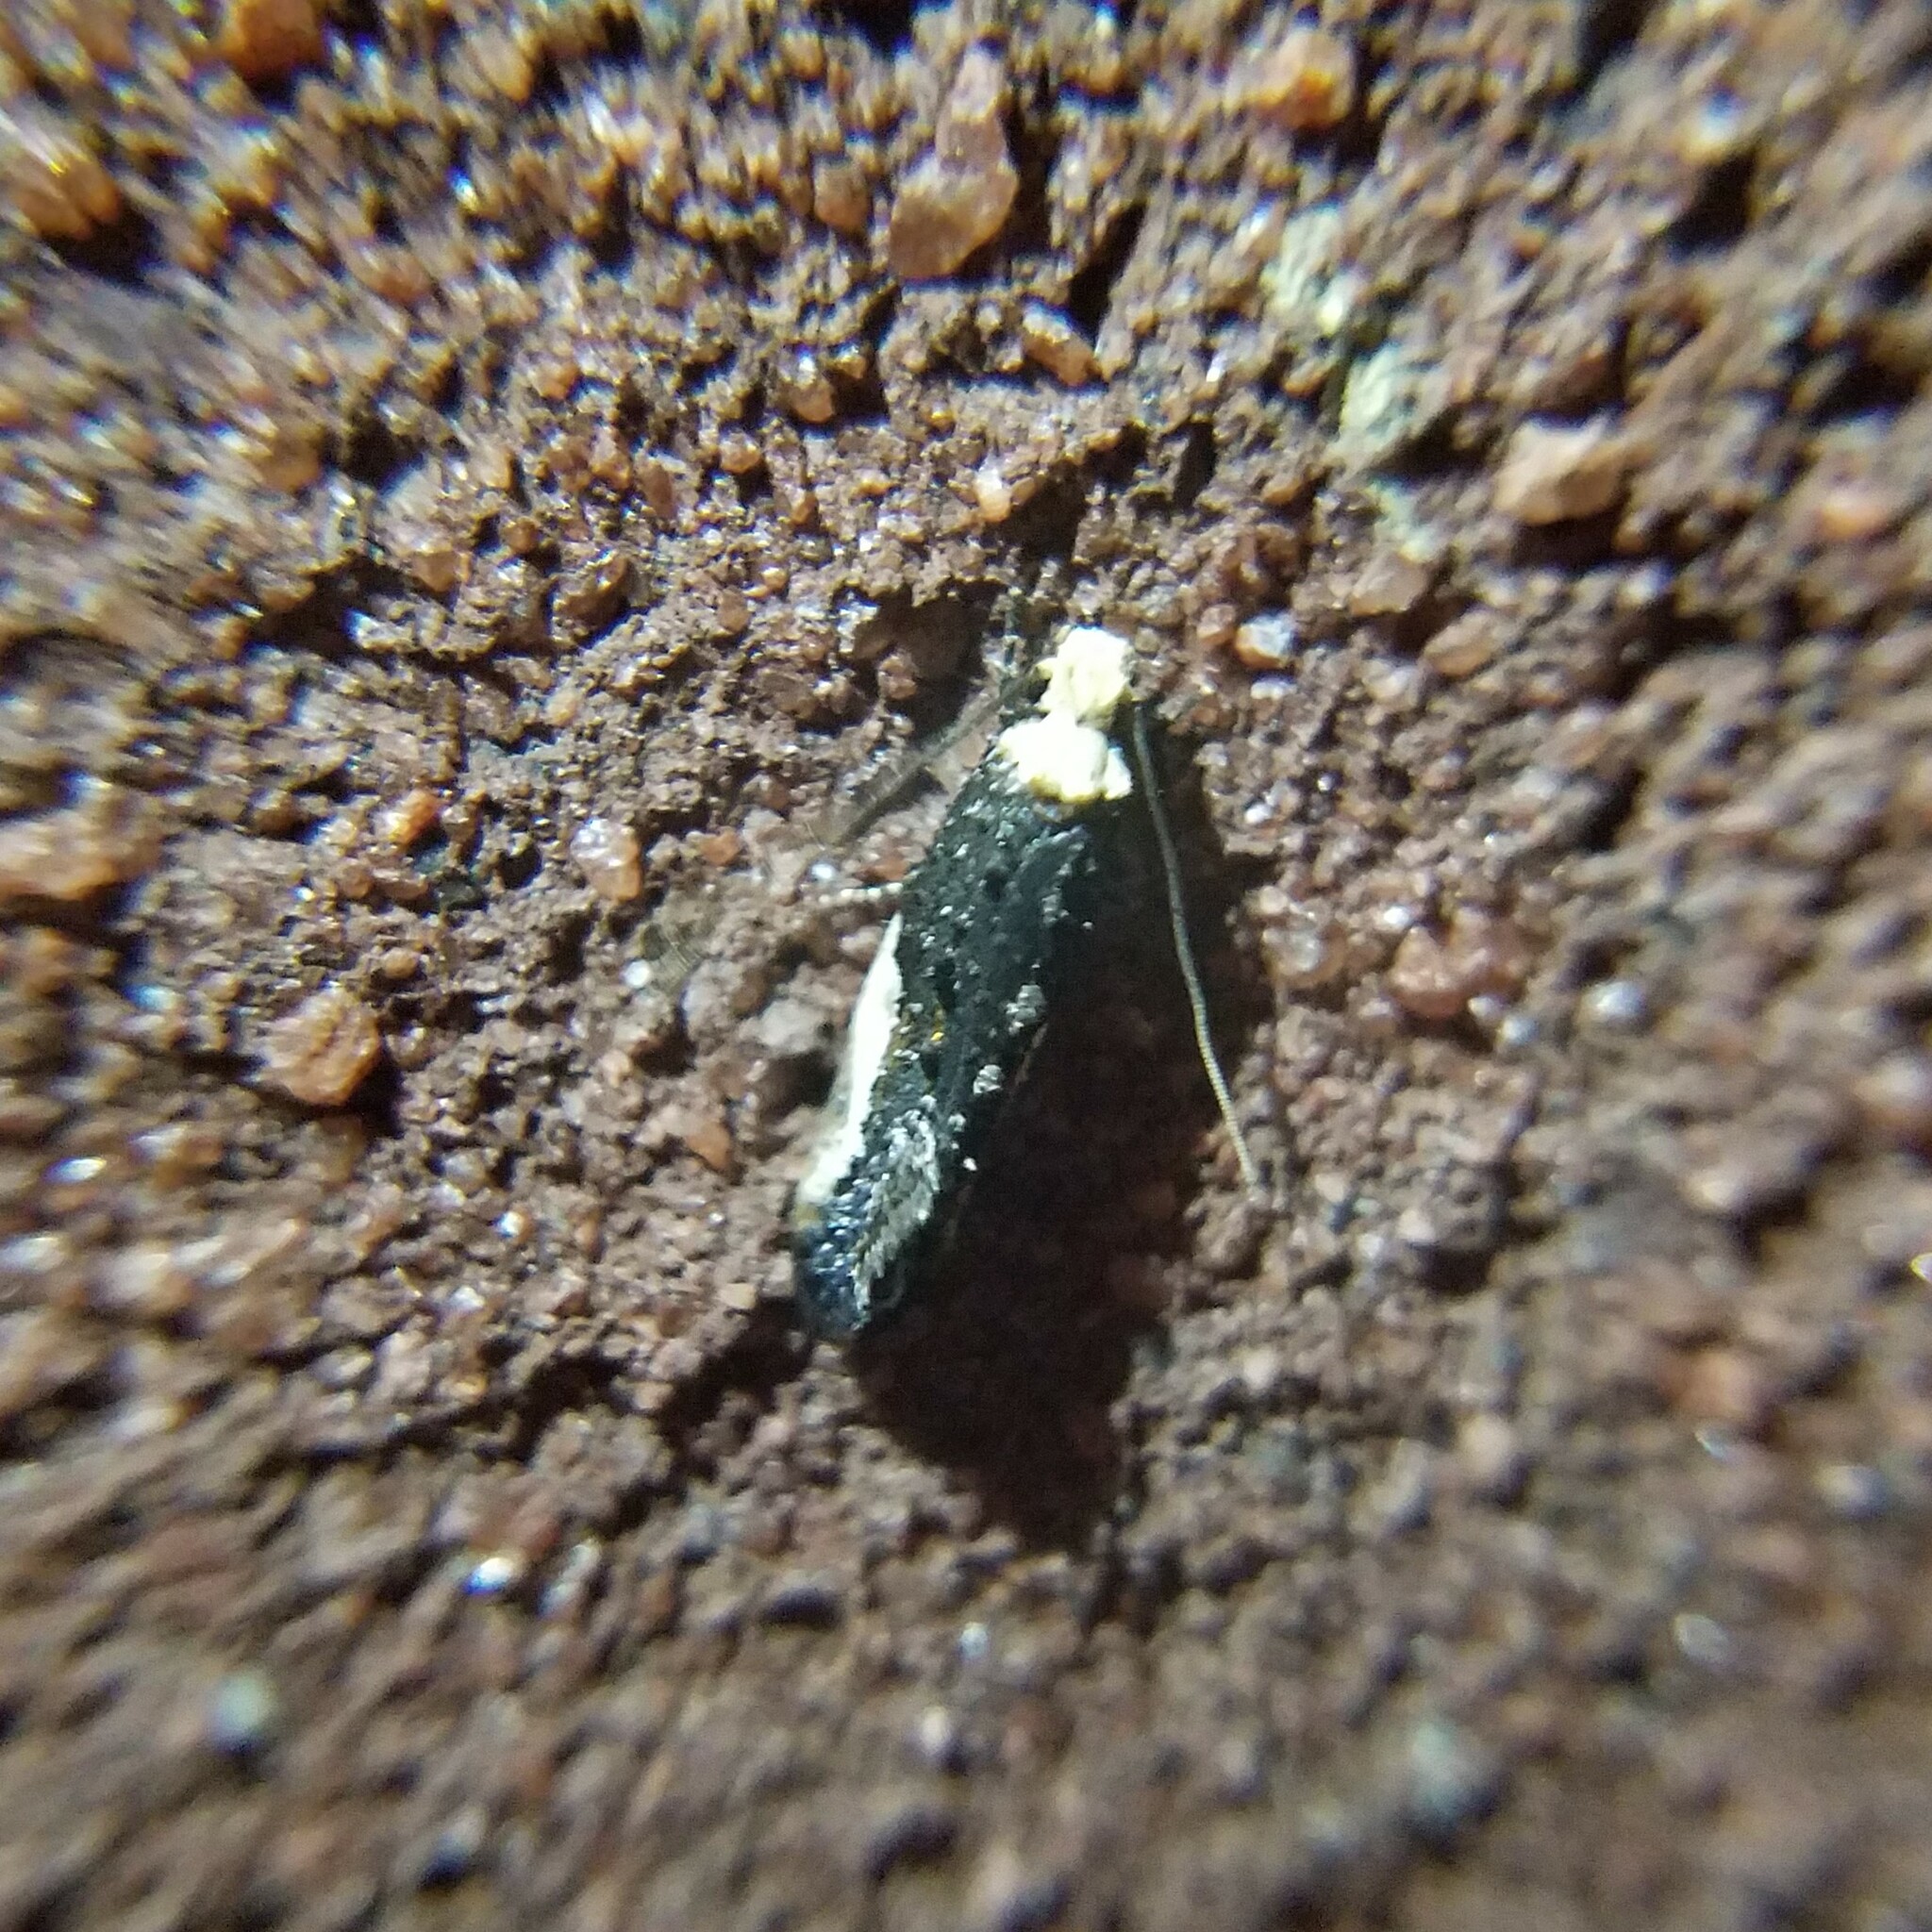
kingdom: Animalia
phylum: Arthropoda
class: Insecta
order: Lepidoptera
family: Tineidae
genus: Monopis
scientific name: Monopis longella
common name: Pavlovski's monopis moth
